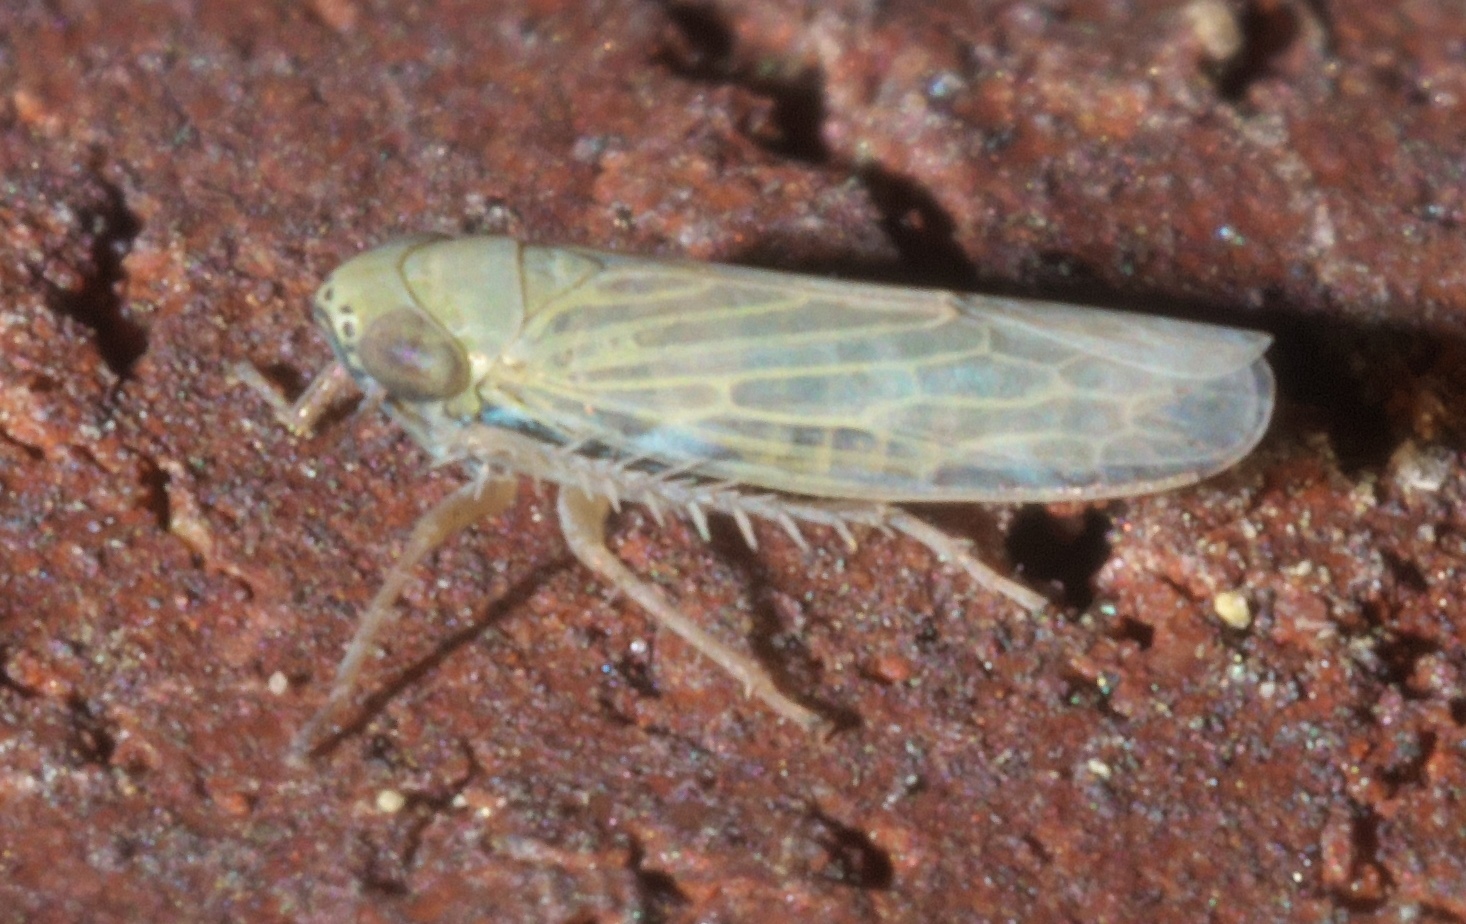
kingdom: Animalia
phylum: Arthropoda
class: Insecta
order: Hemiptera
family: Cicadellidae
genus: Graminella
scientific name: Graminella nigrifrons
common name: Blackfaced leafhopper
